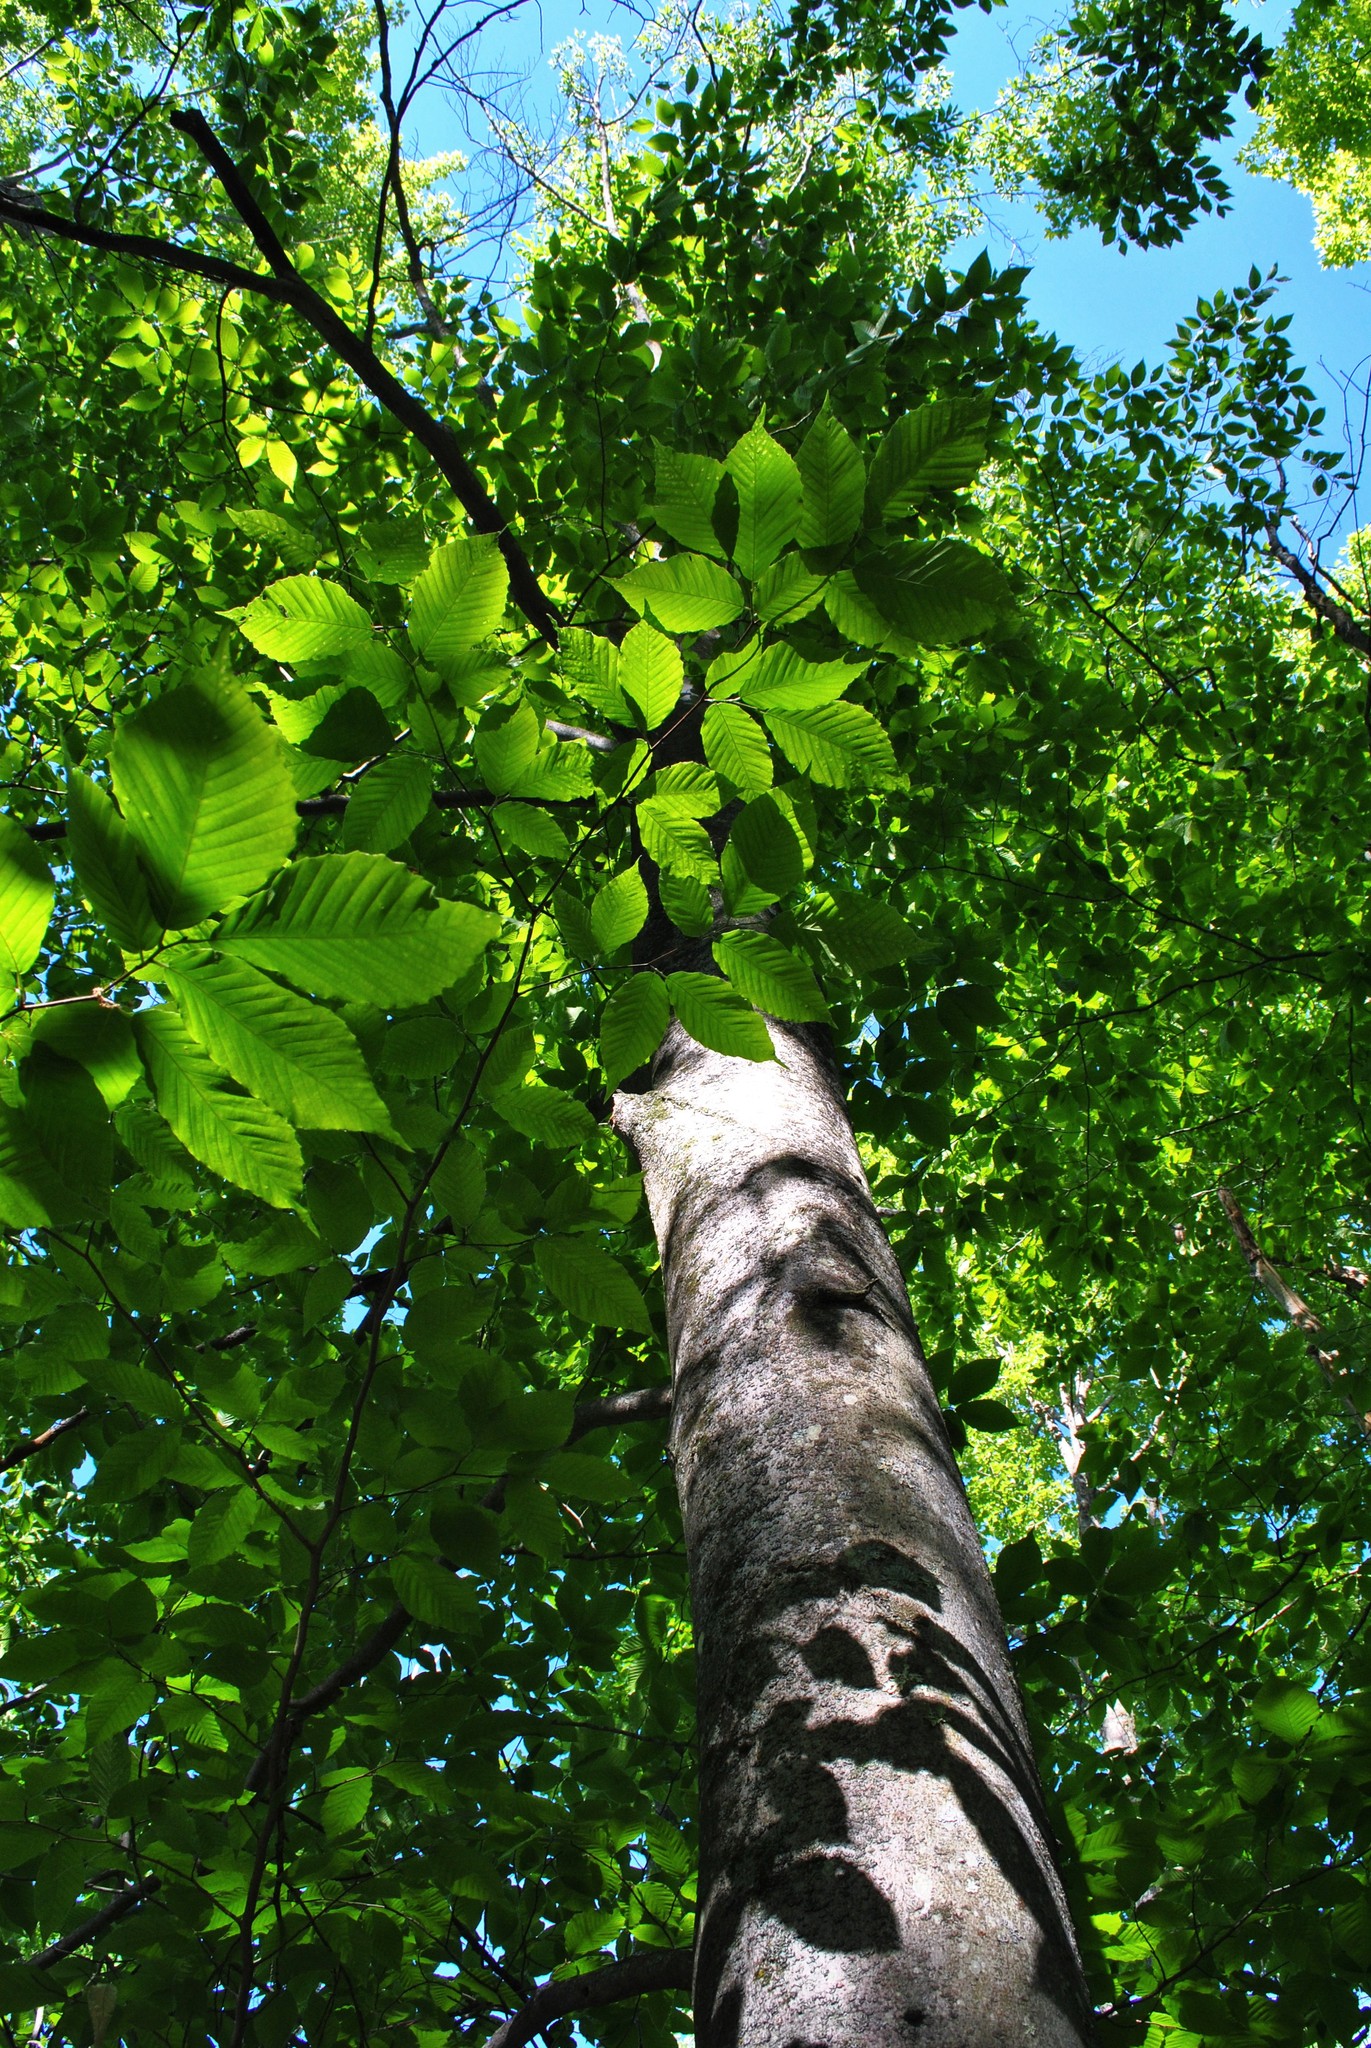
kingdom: Plantae
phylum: Tracheophyta
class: Magnoliopsida
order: Fagales
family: Fagaceae
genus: Fagus
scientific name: Fagus grandifolia
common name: American beech
